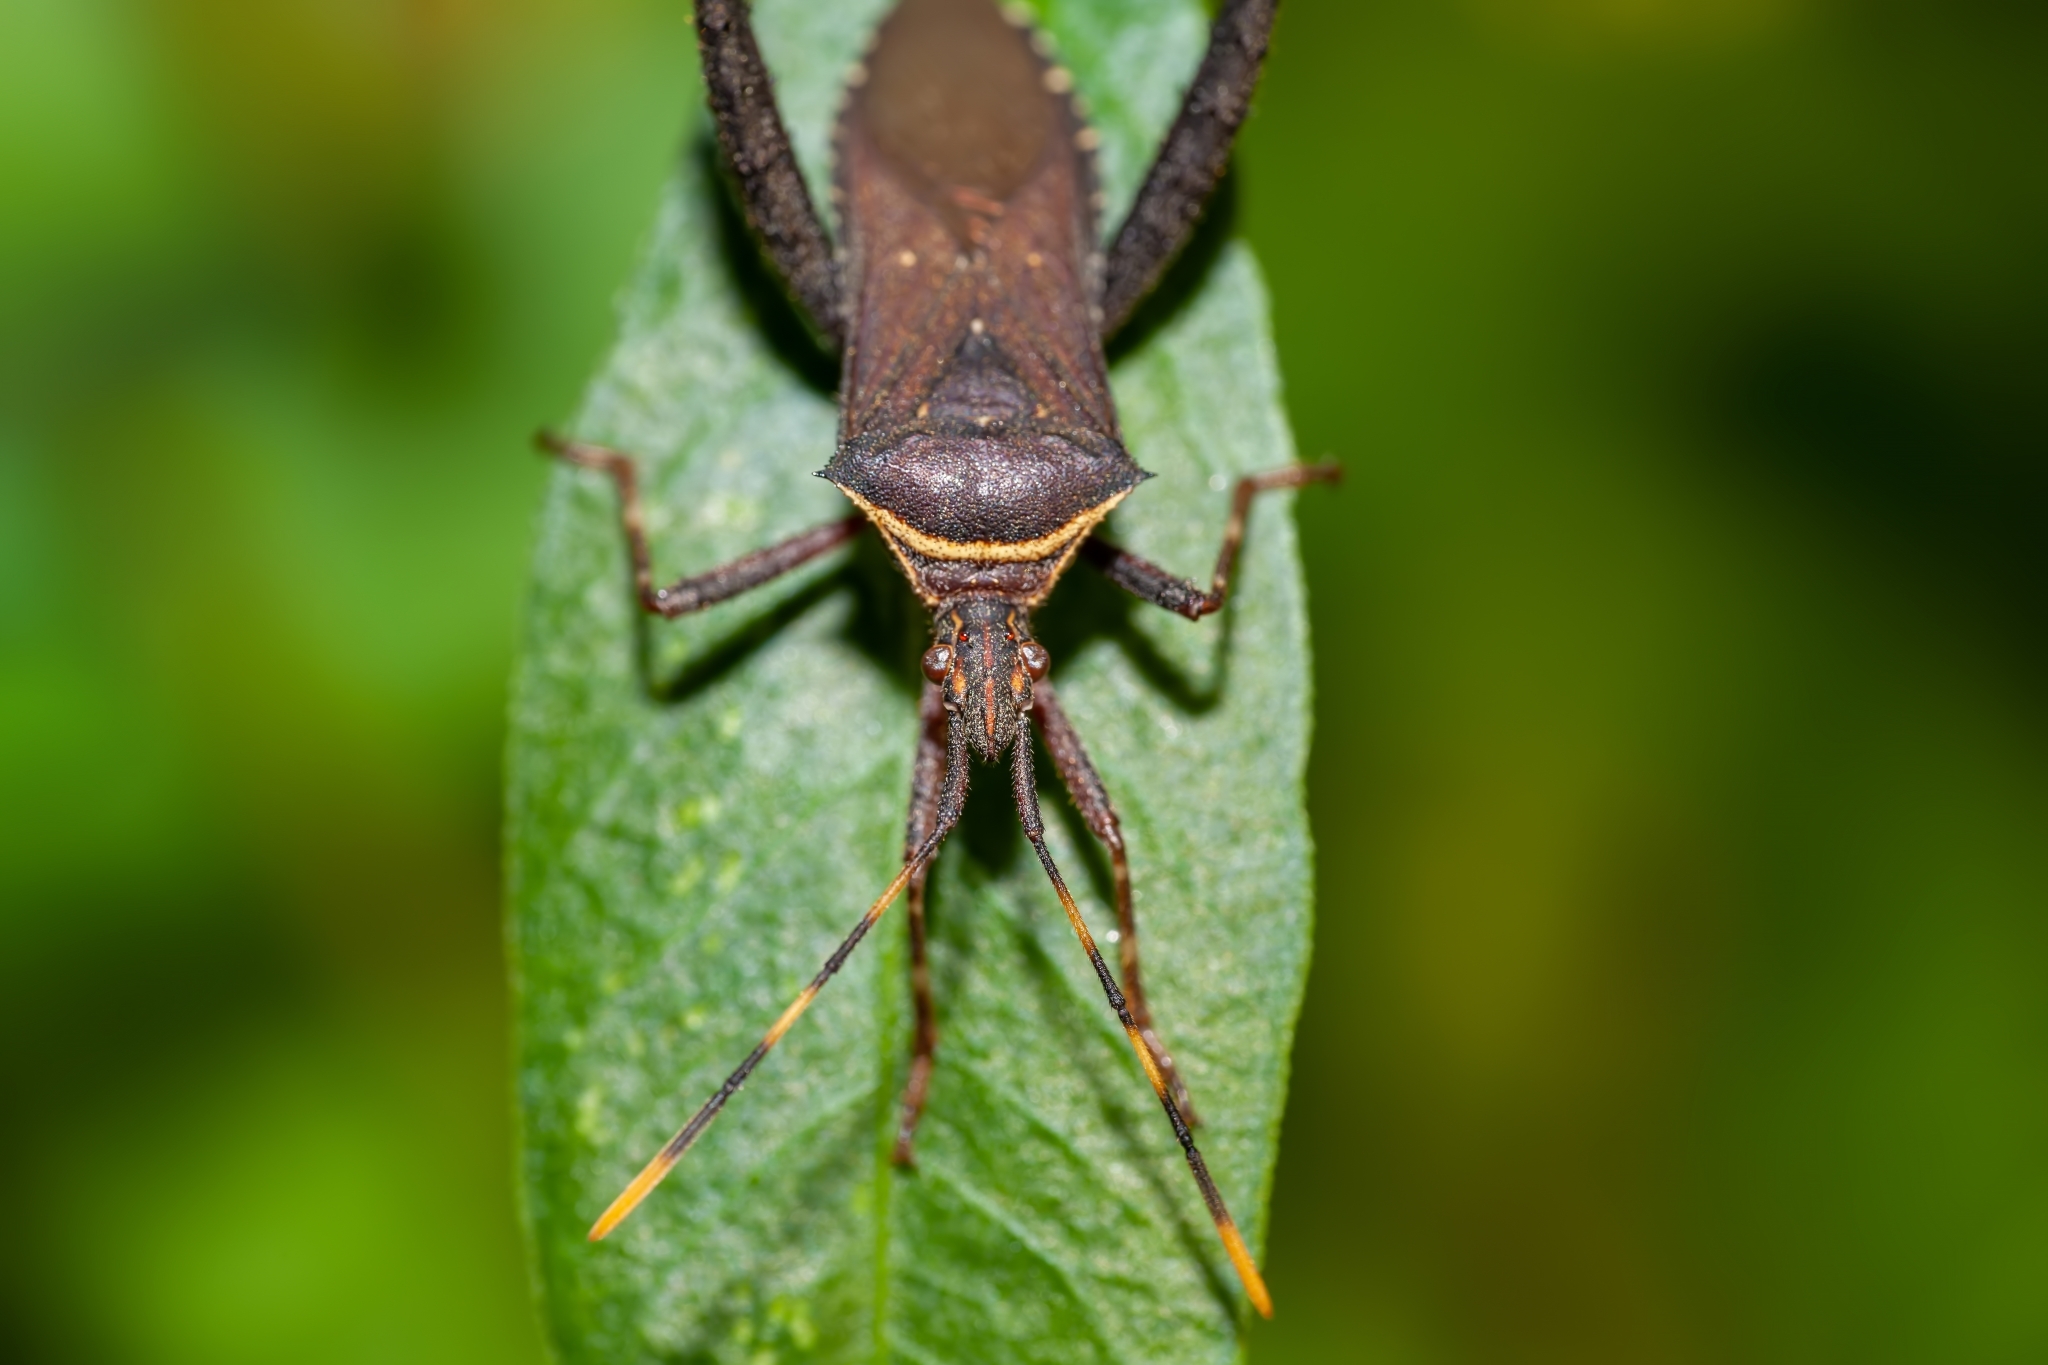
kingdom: Animalia
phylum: Arthropoda
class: Insecta
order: Hemiptera
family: Coreidae
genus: Leptoglossus
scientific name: Leptoglossus gonagra
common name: Citron bug
